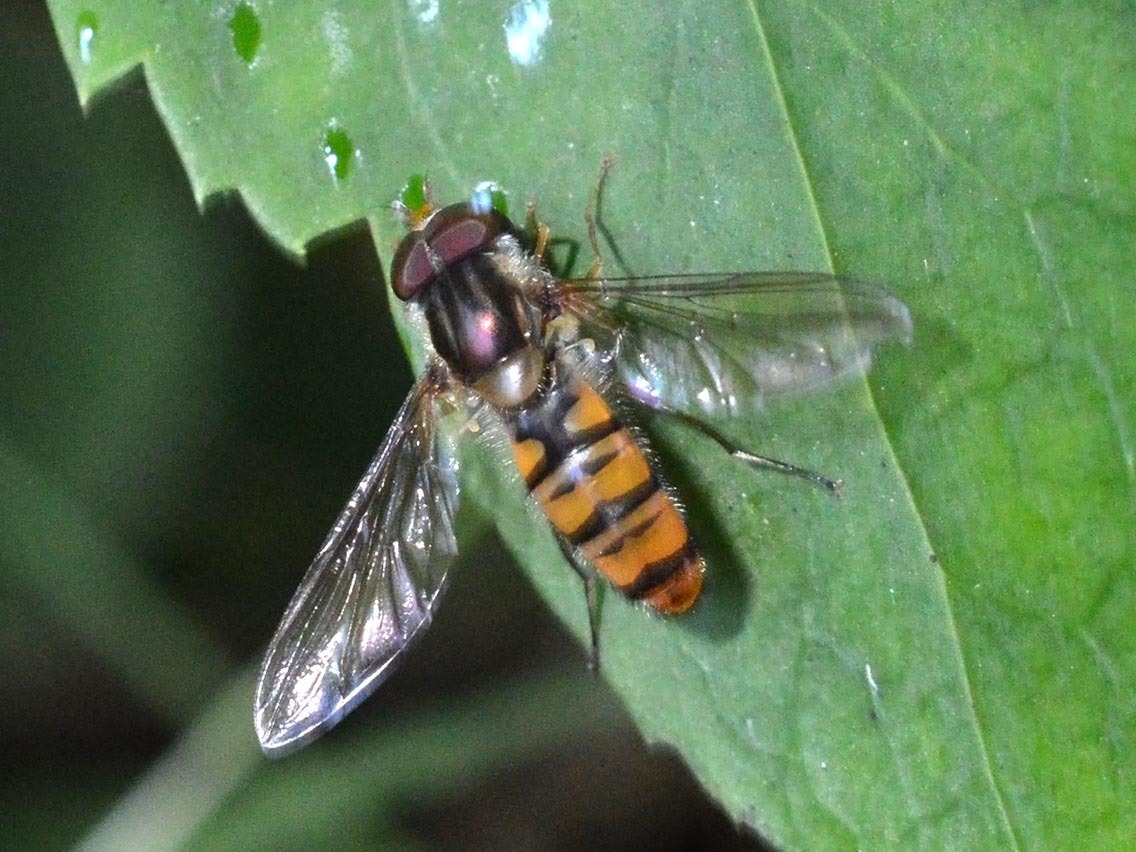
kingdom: Animalia
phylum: Arthropoda
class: Insecta
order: Diptera
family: Syrphidae
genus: Episyrphus
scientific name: Episyrphus balteatus
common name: Marmalade hoverfly
